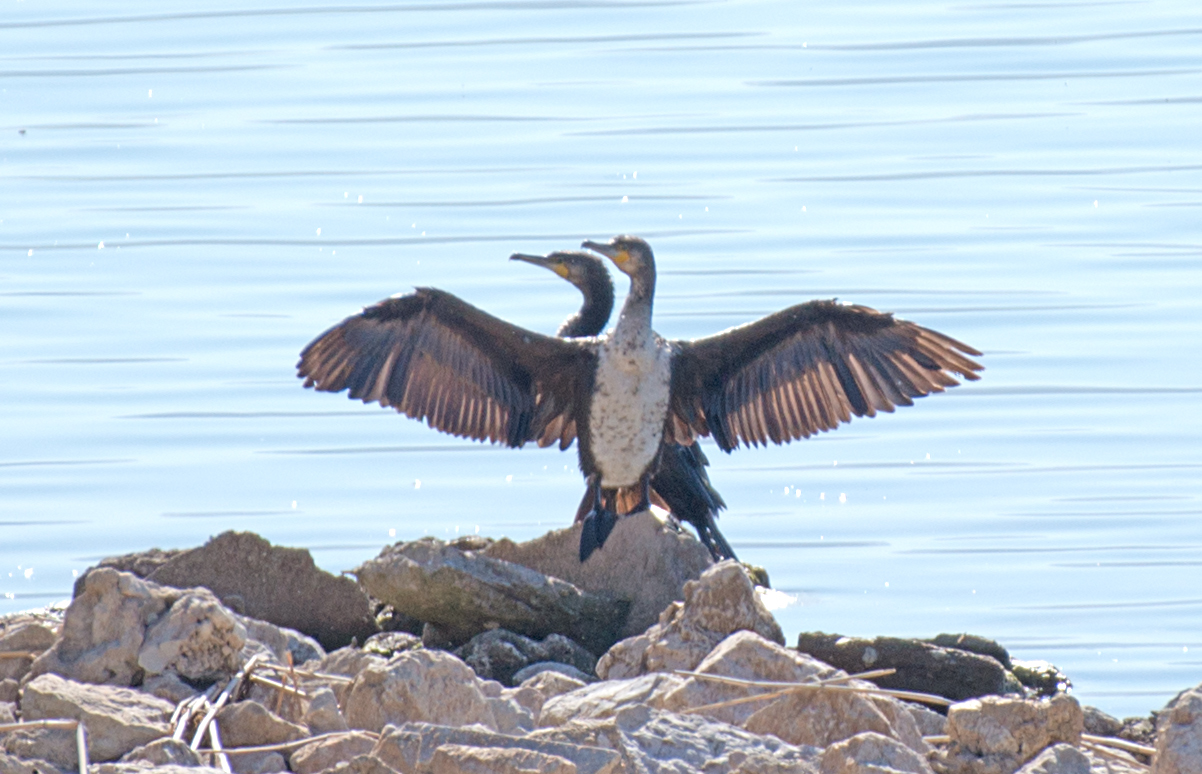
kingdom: Animalia
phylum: Chordata
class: Aves
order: Suliformes
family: Phalacrocoracidae
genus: Phalacrocorax
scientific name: Phalacrocorax carbo
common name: Great cormorant
